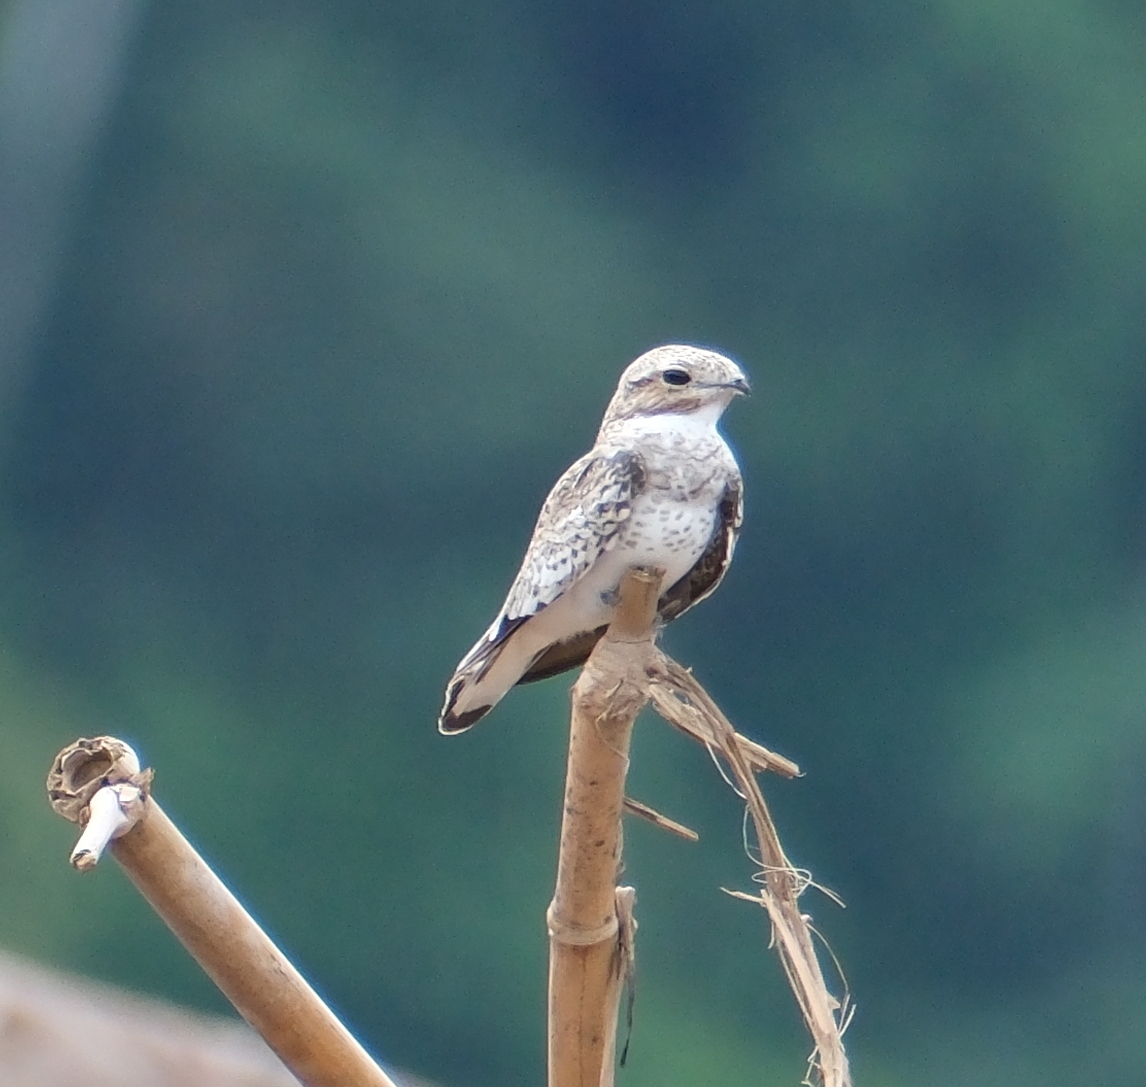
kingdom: Animalia
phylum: Chordata
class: Aves
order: Caprimulgiformes
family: Caprimulgidae
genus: Chordeiles
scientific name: Chordeiles rupestris
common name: Sand-colored nighthawk
